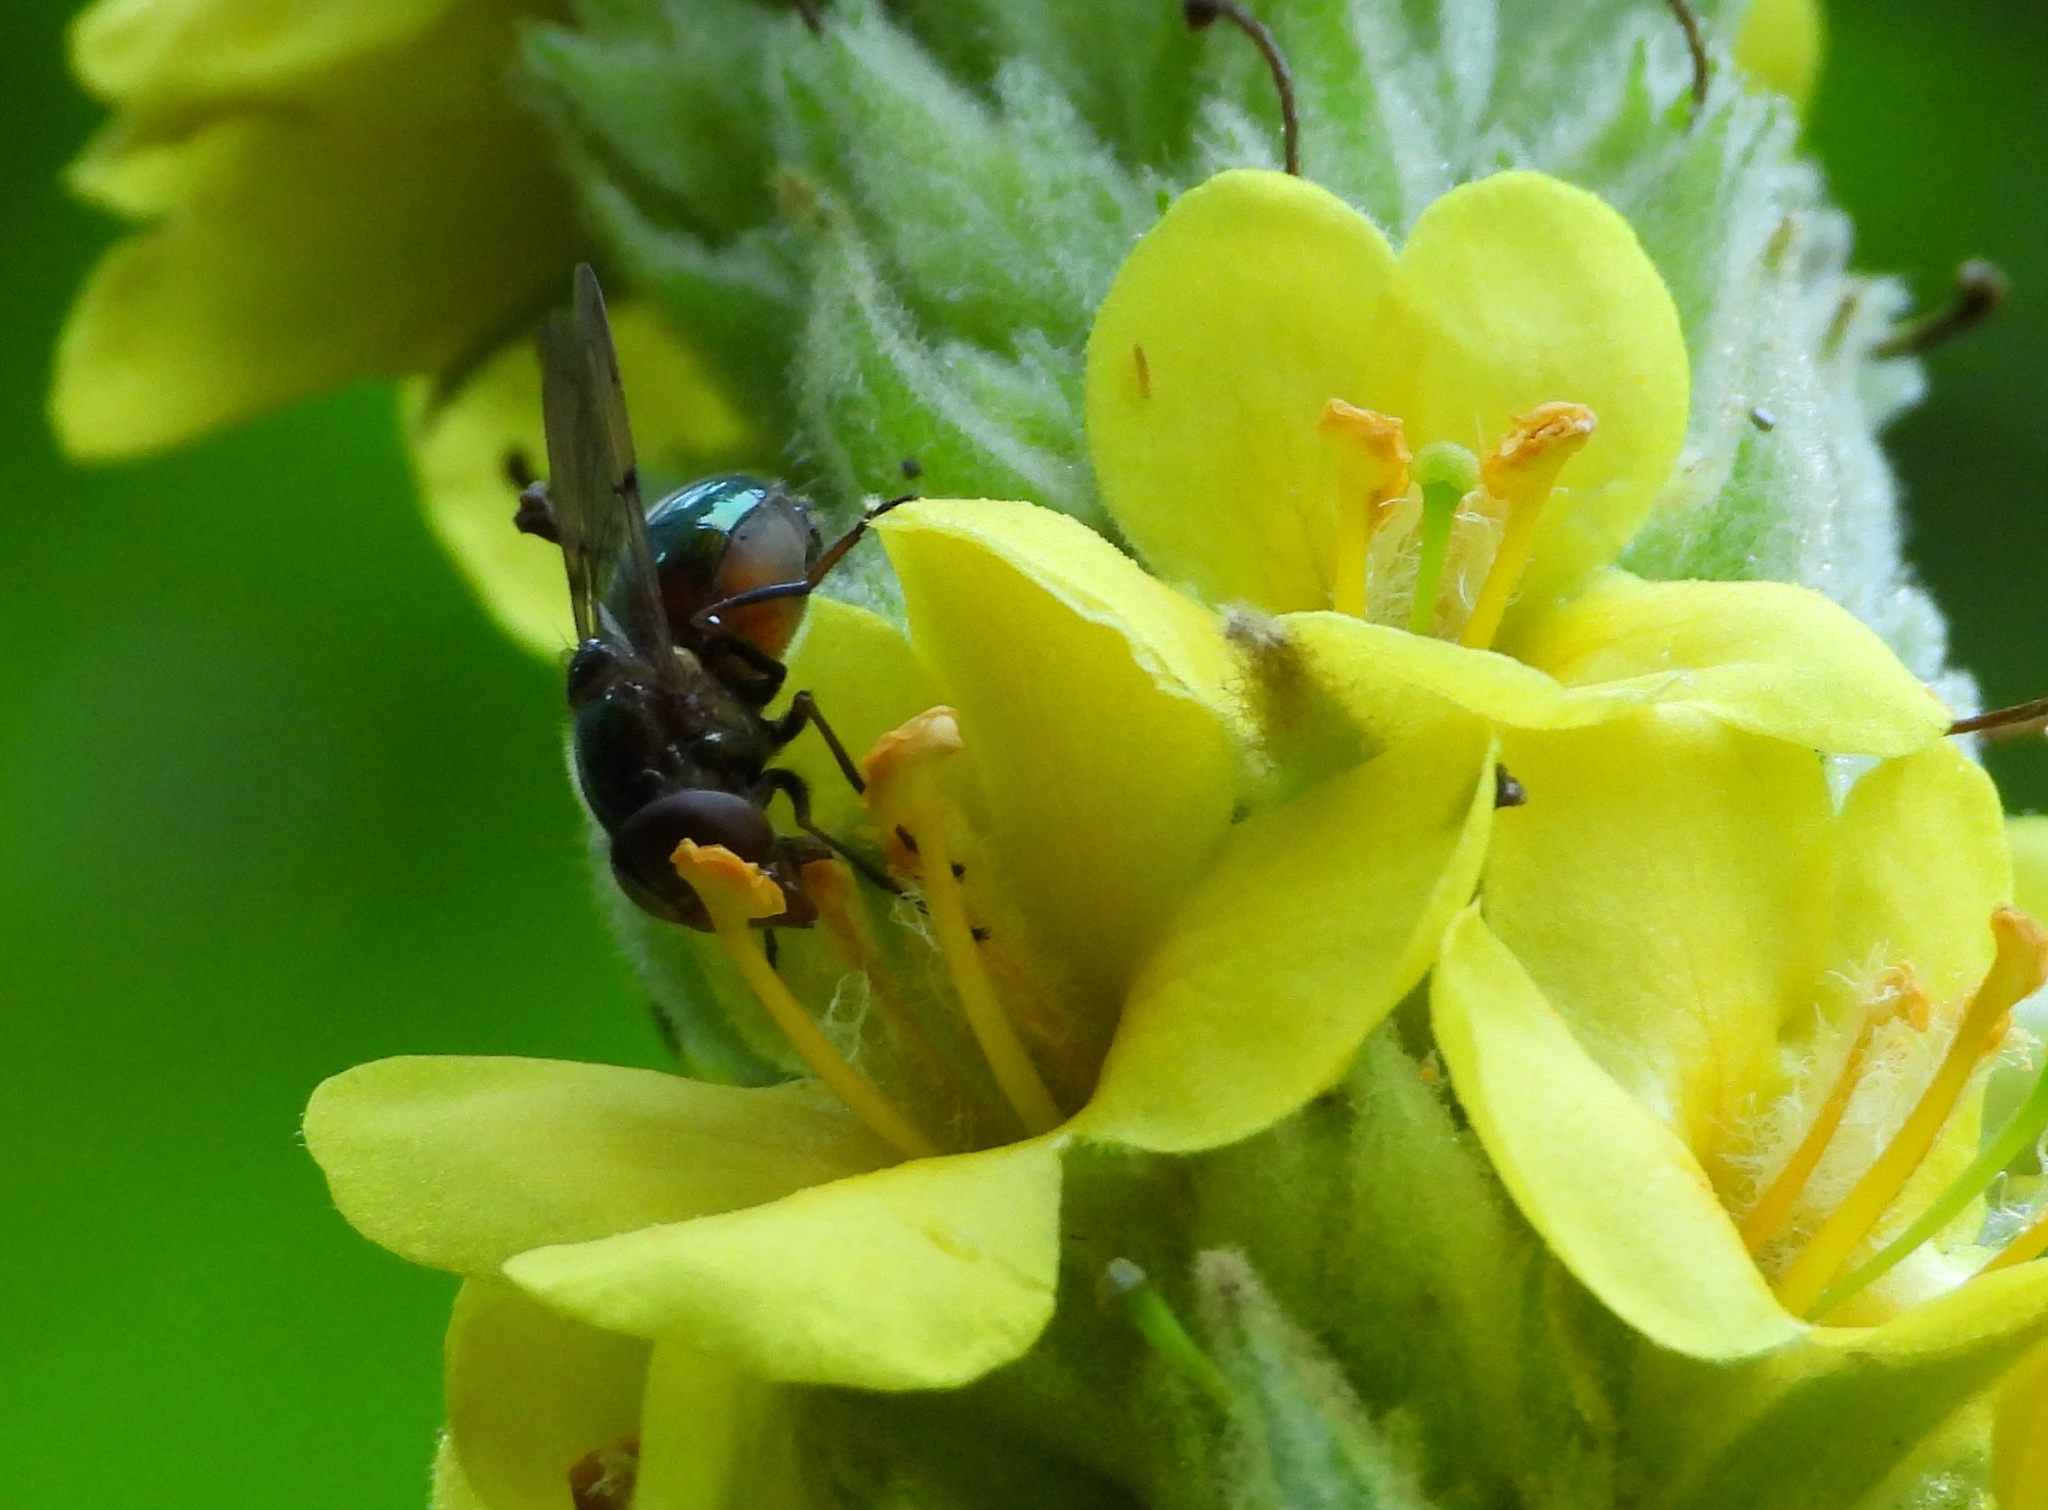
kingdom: Animalia
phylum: Arthropoda
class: Insecta
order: Diptera
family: Syrphidae
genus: Copestylum
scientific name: Copestylum
